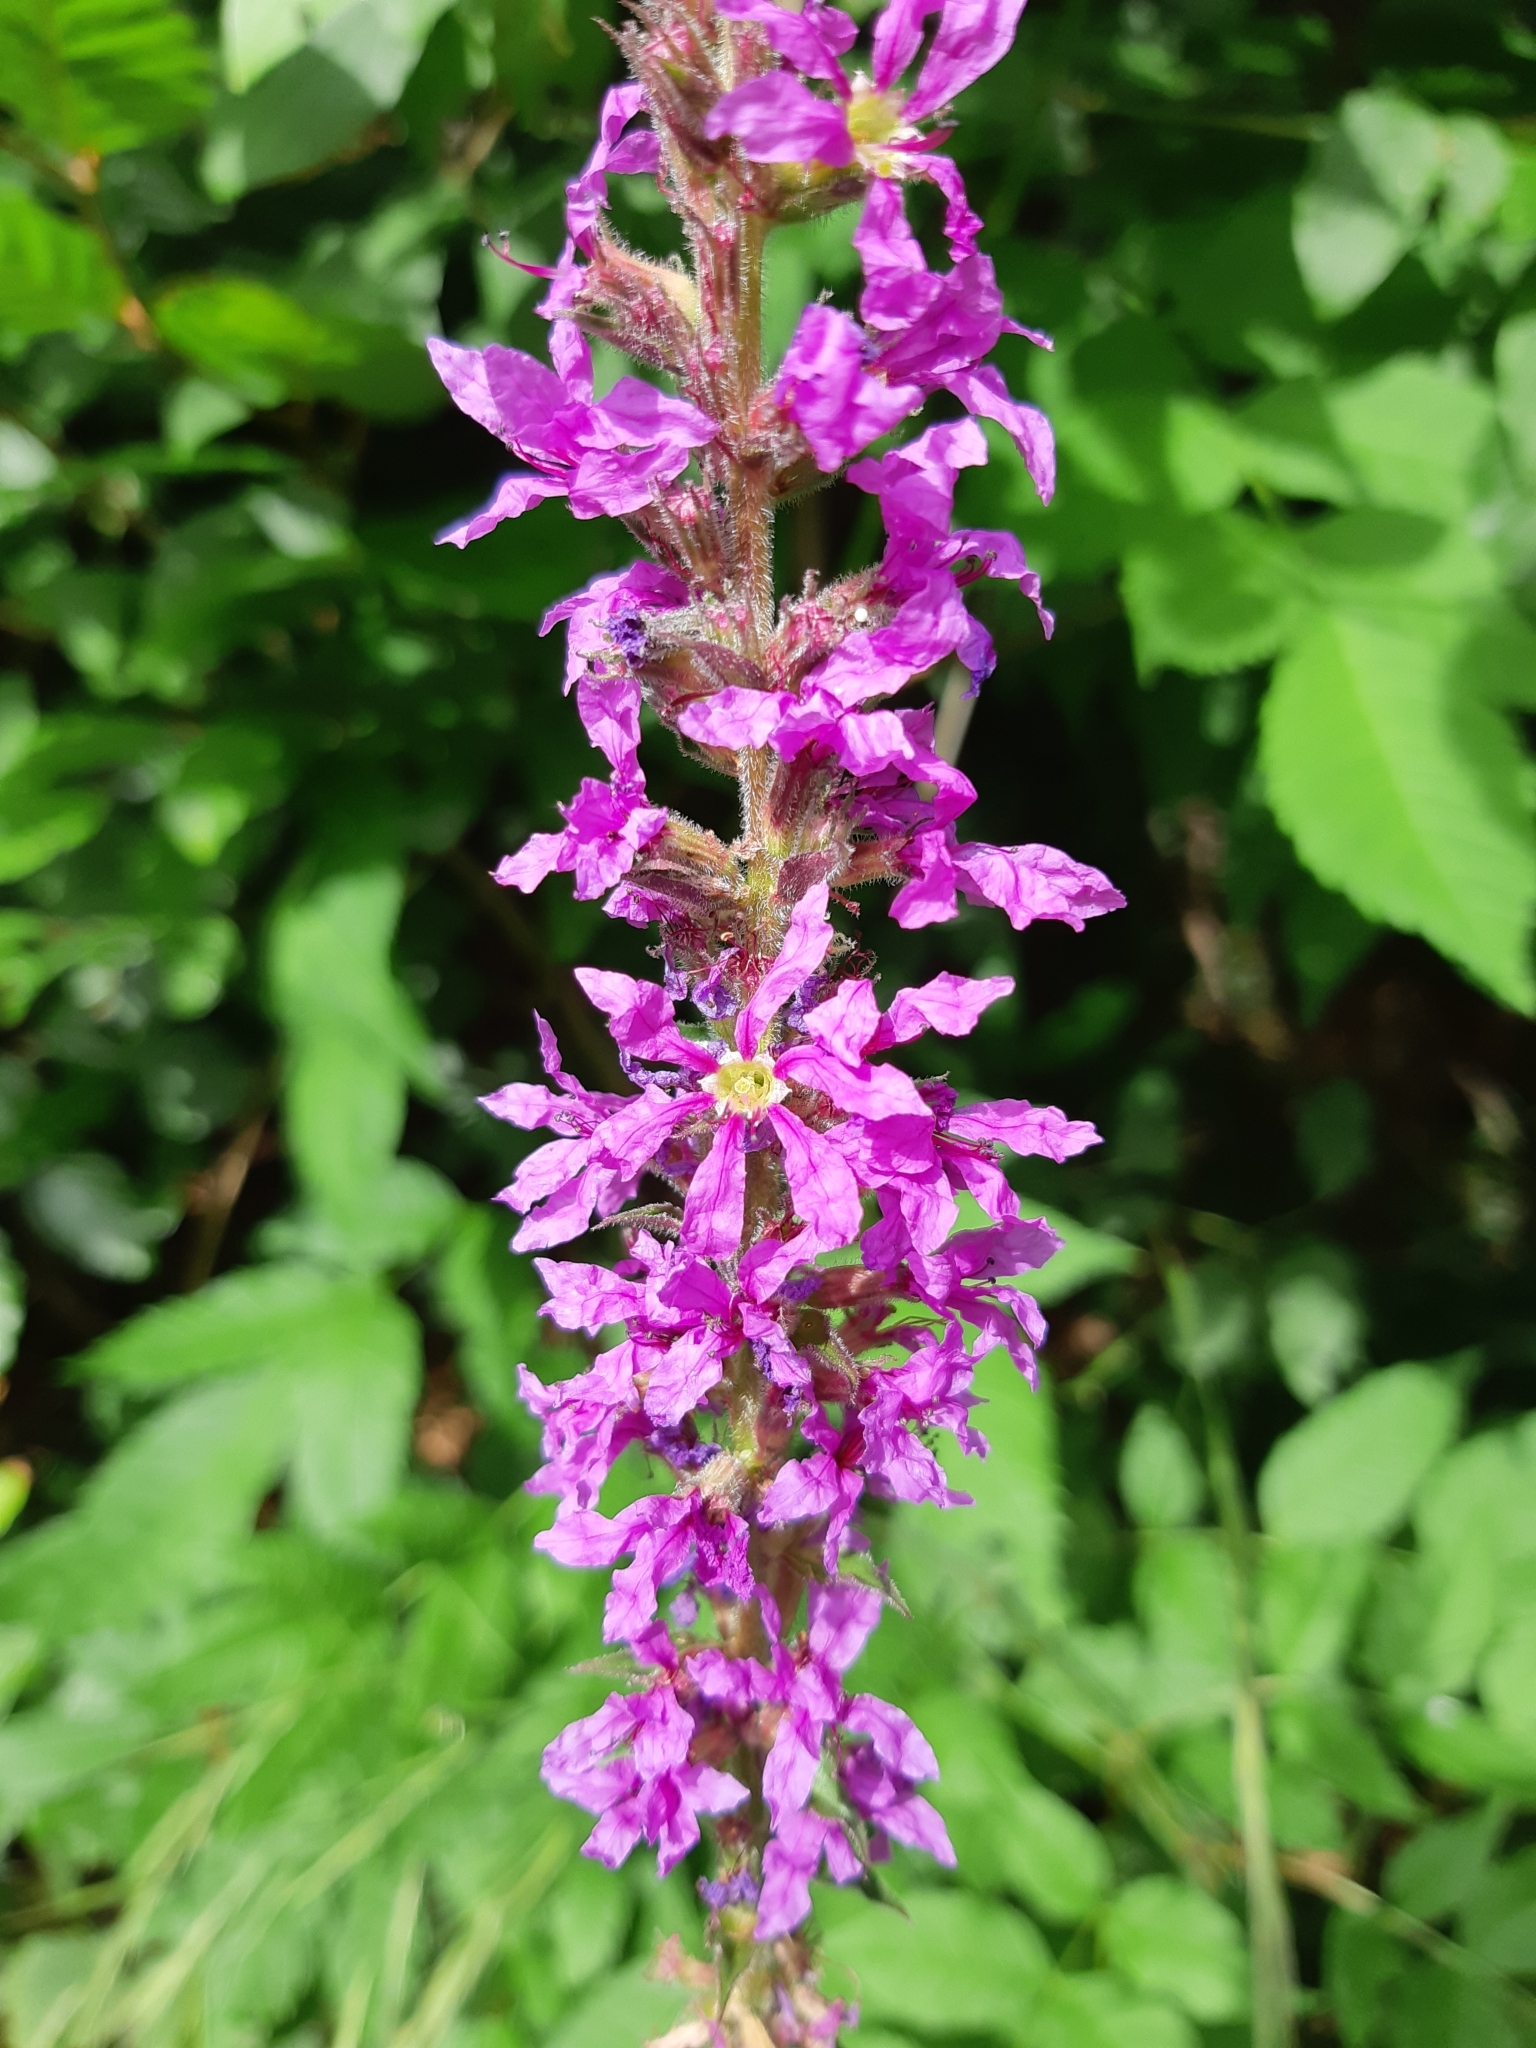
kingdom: Plantae
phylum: Tracheophyta
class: Magnoliopsida
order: Myrtales
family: Lythraceae
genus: Lythrum
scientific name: Lythrum salicaria
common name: Purple loosestrife
